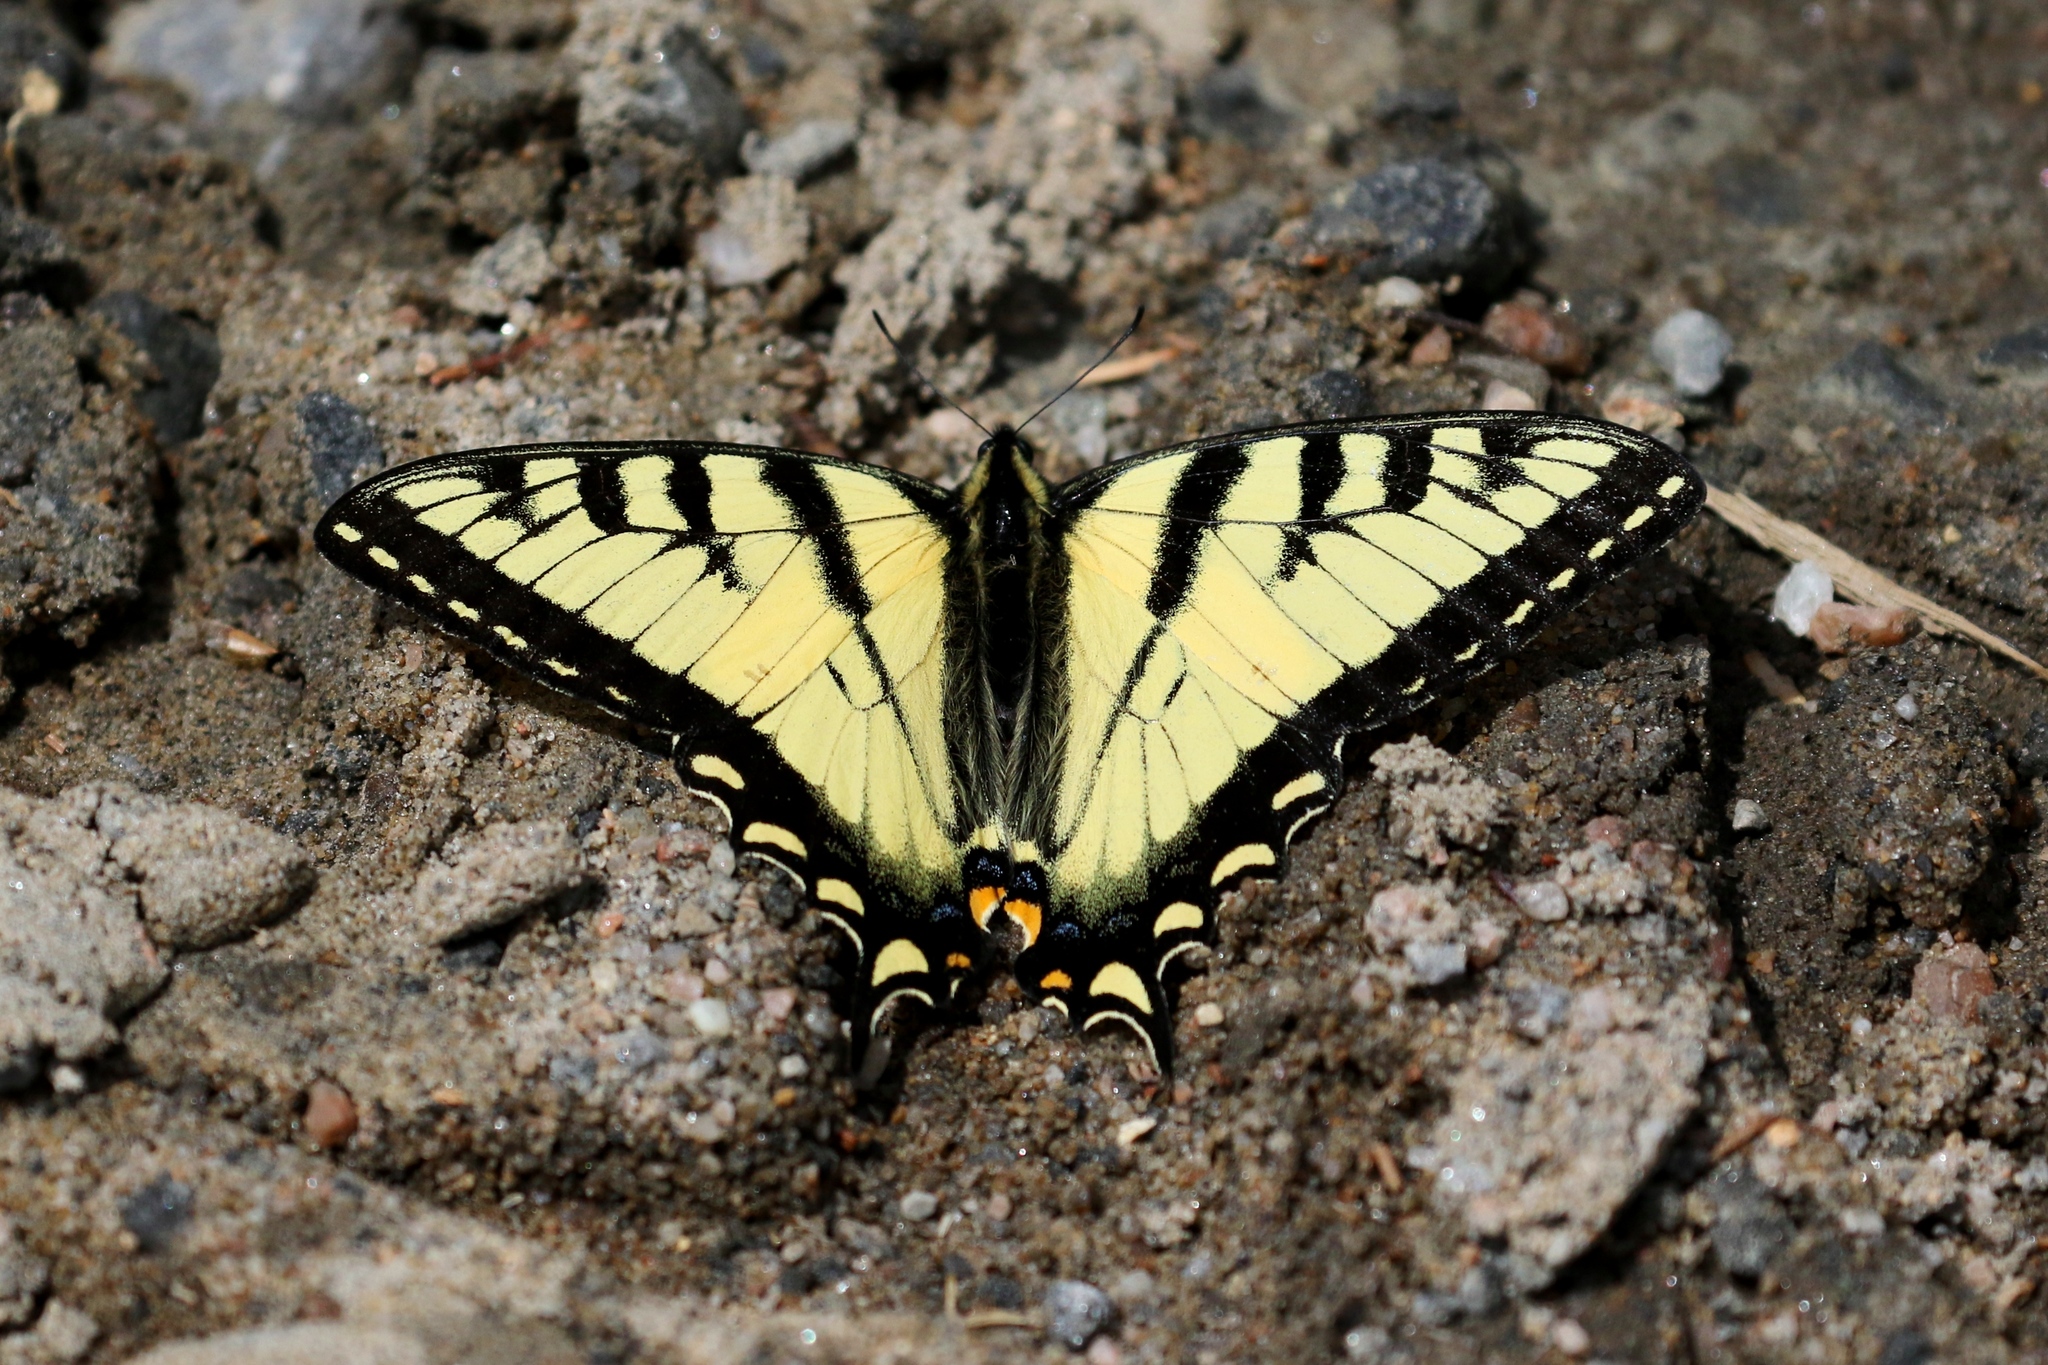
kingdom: Animalia
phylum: Arthropoda
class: Insecta
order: Lepidoptera
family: Papilionidae
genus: Papilio
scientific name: Papilio canadensis
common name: Canadian tiger swallowtail
